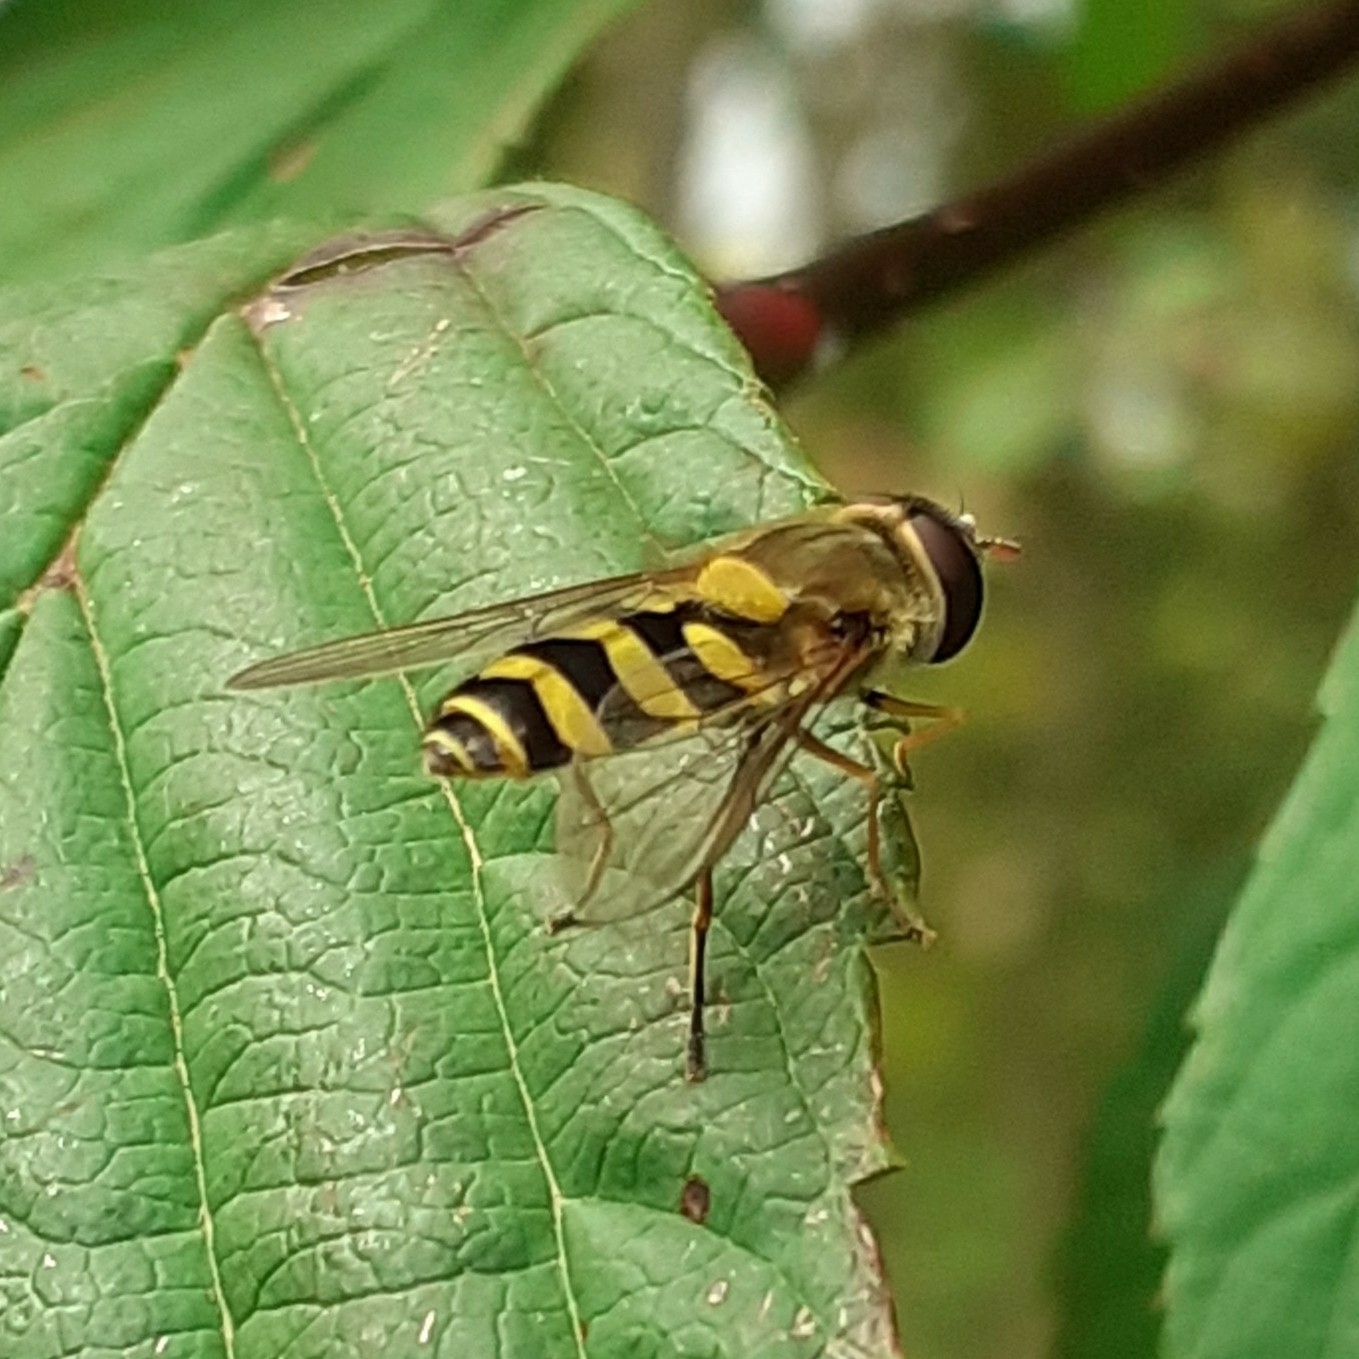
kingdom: Animalia
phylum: Arthropoda
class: Insecta
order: Diptera
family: Syrphidae
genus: Syrphus
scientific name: Syrphus
